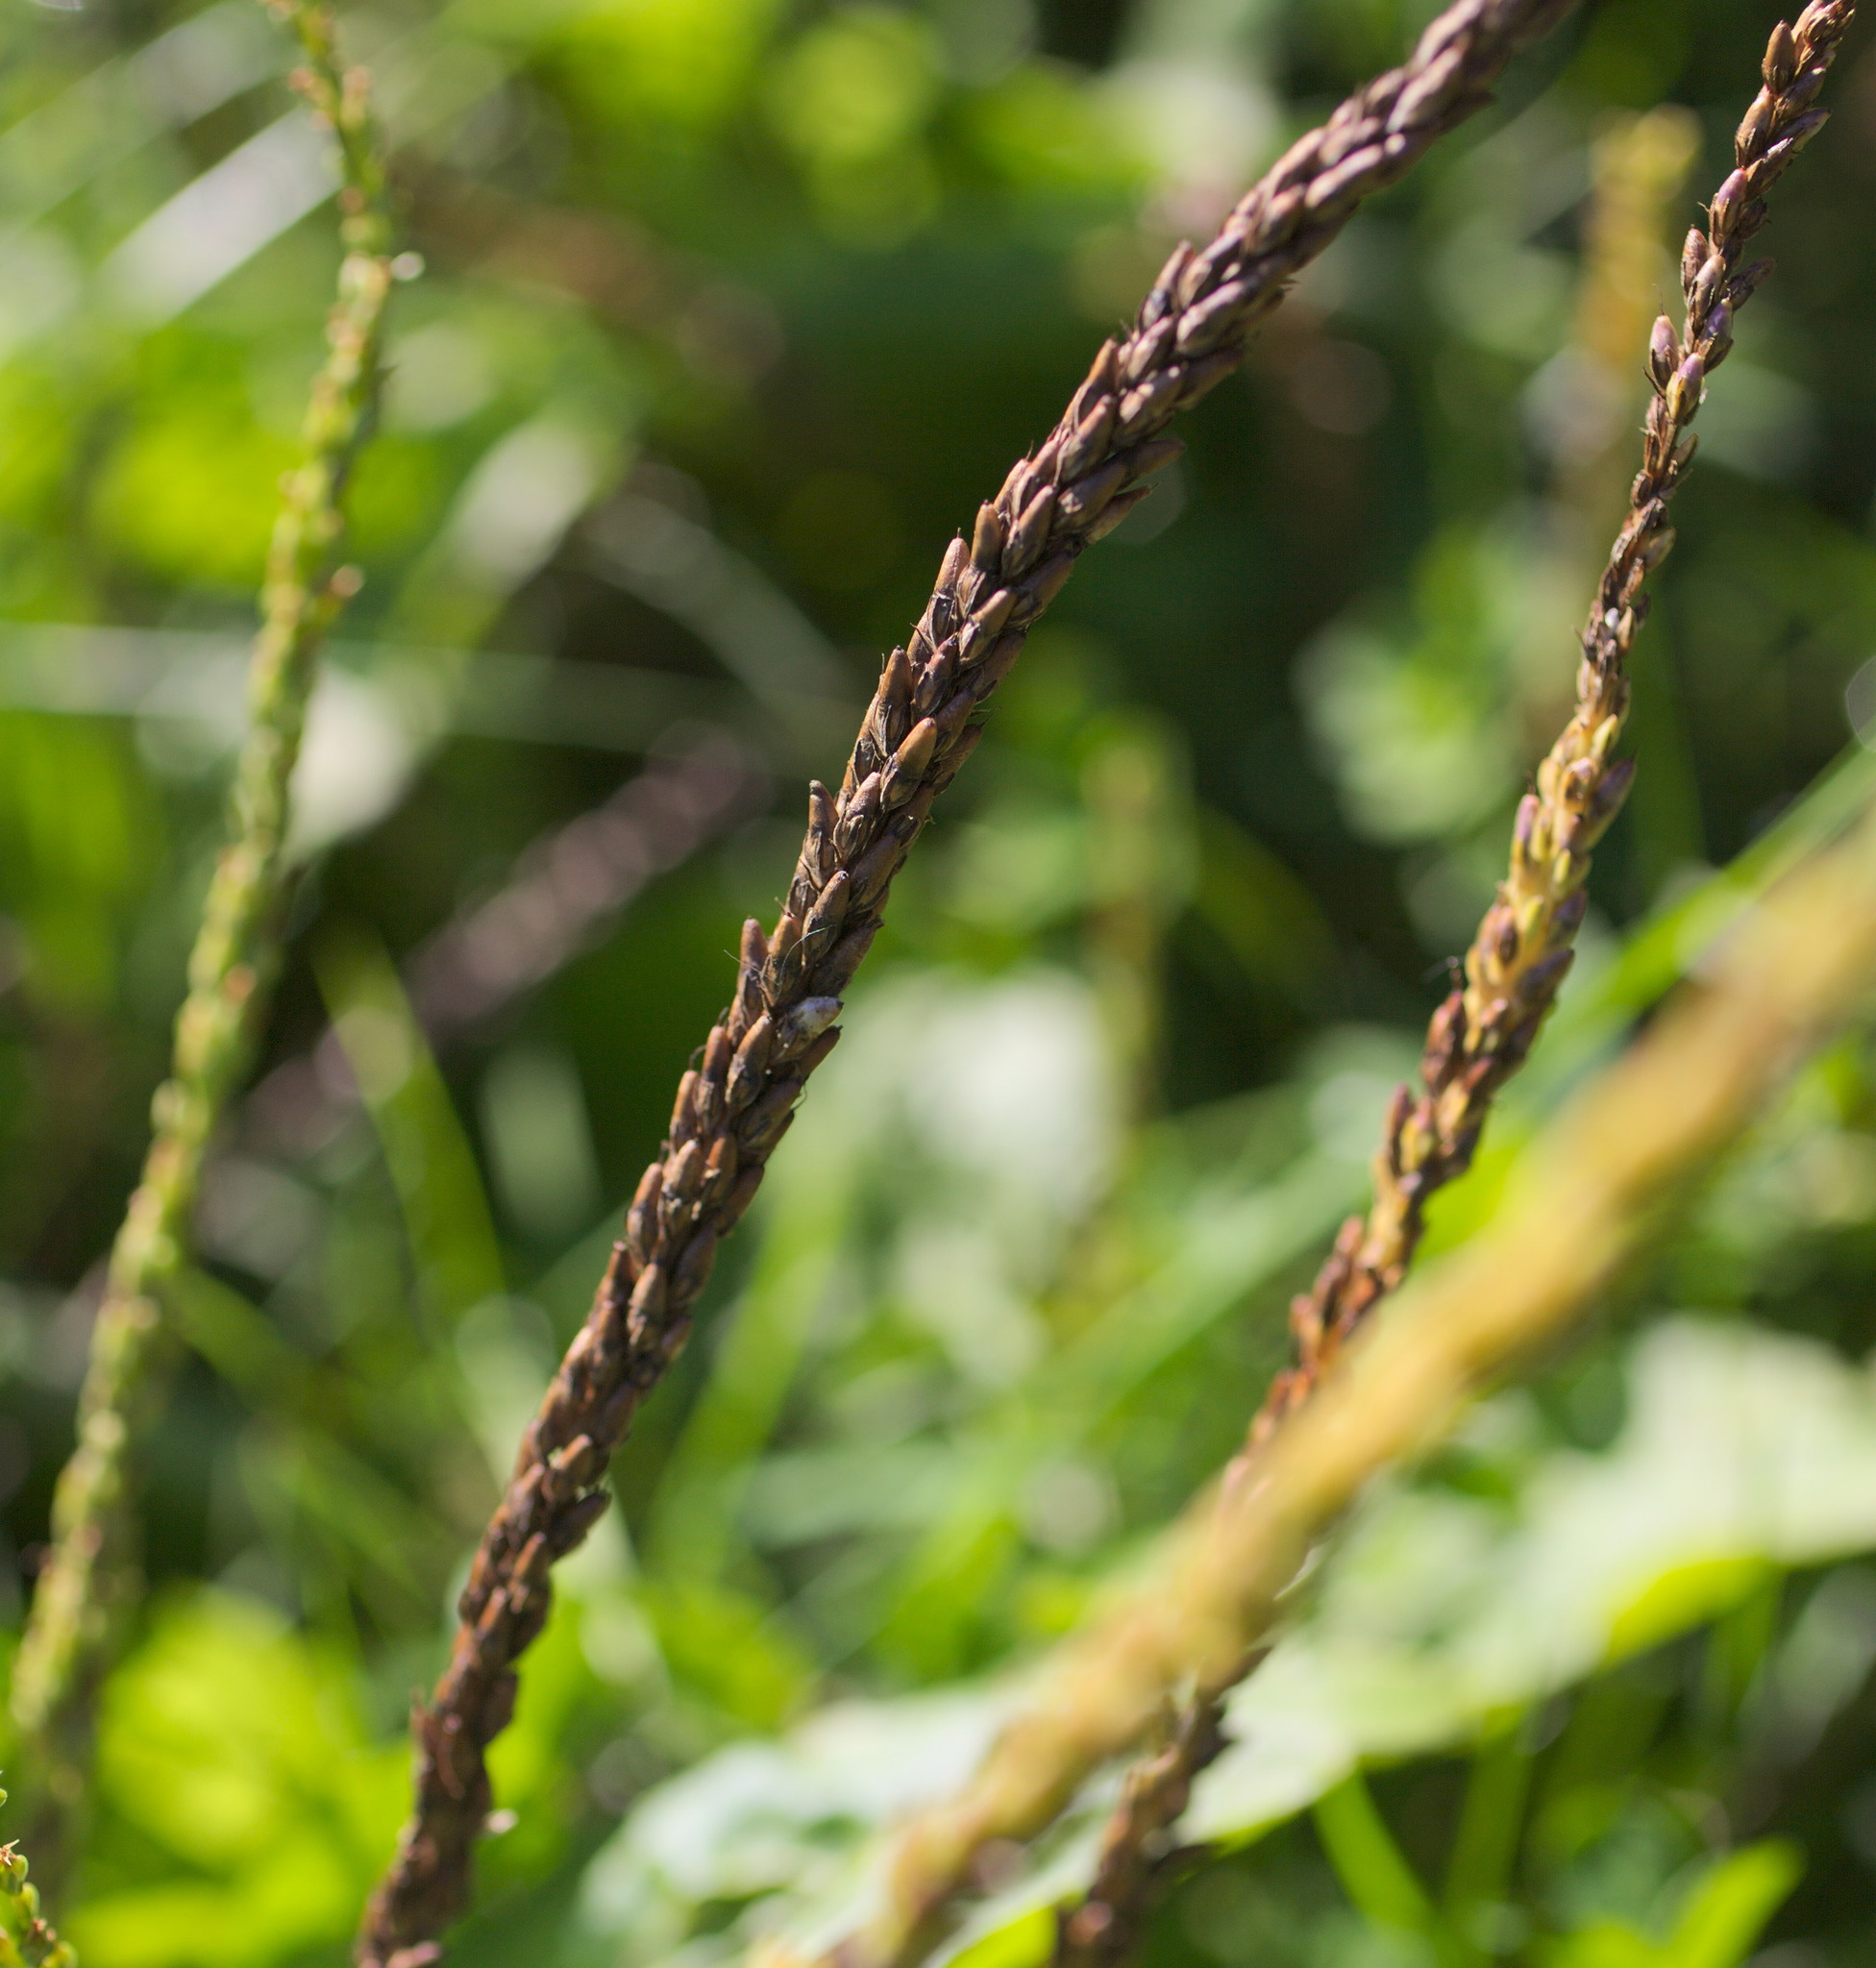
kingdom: Plantae
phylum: Tracheophyta
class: Magnoliopsida
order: Lamiales
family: Plantaginaceae
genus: Plantago
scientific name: Plantago major
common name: Common plantain
